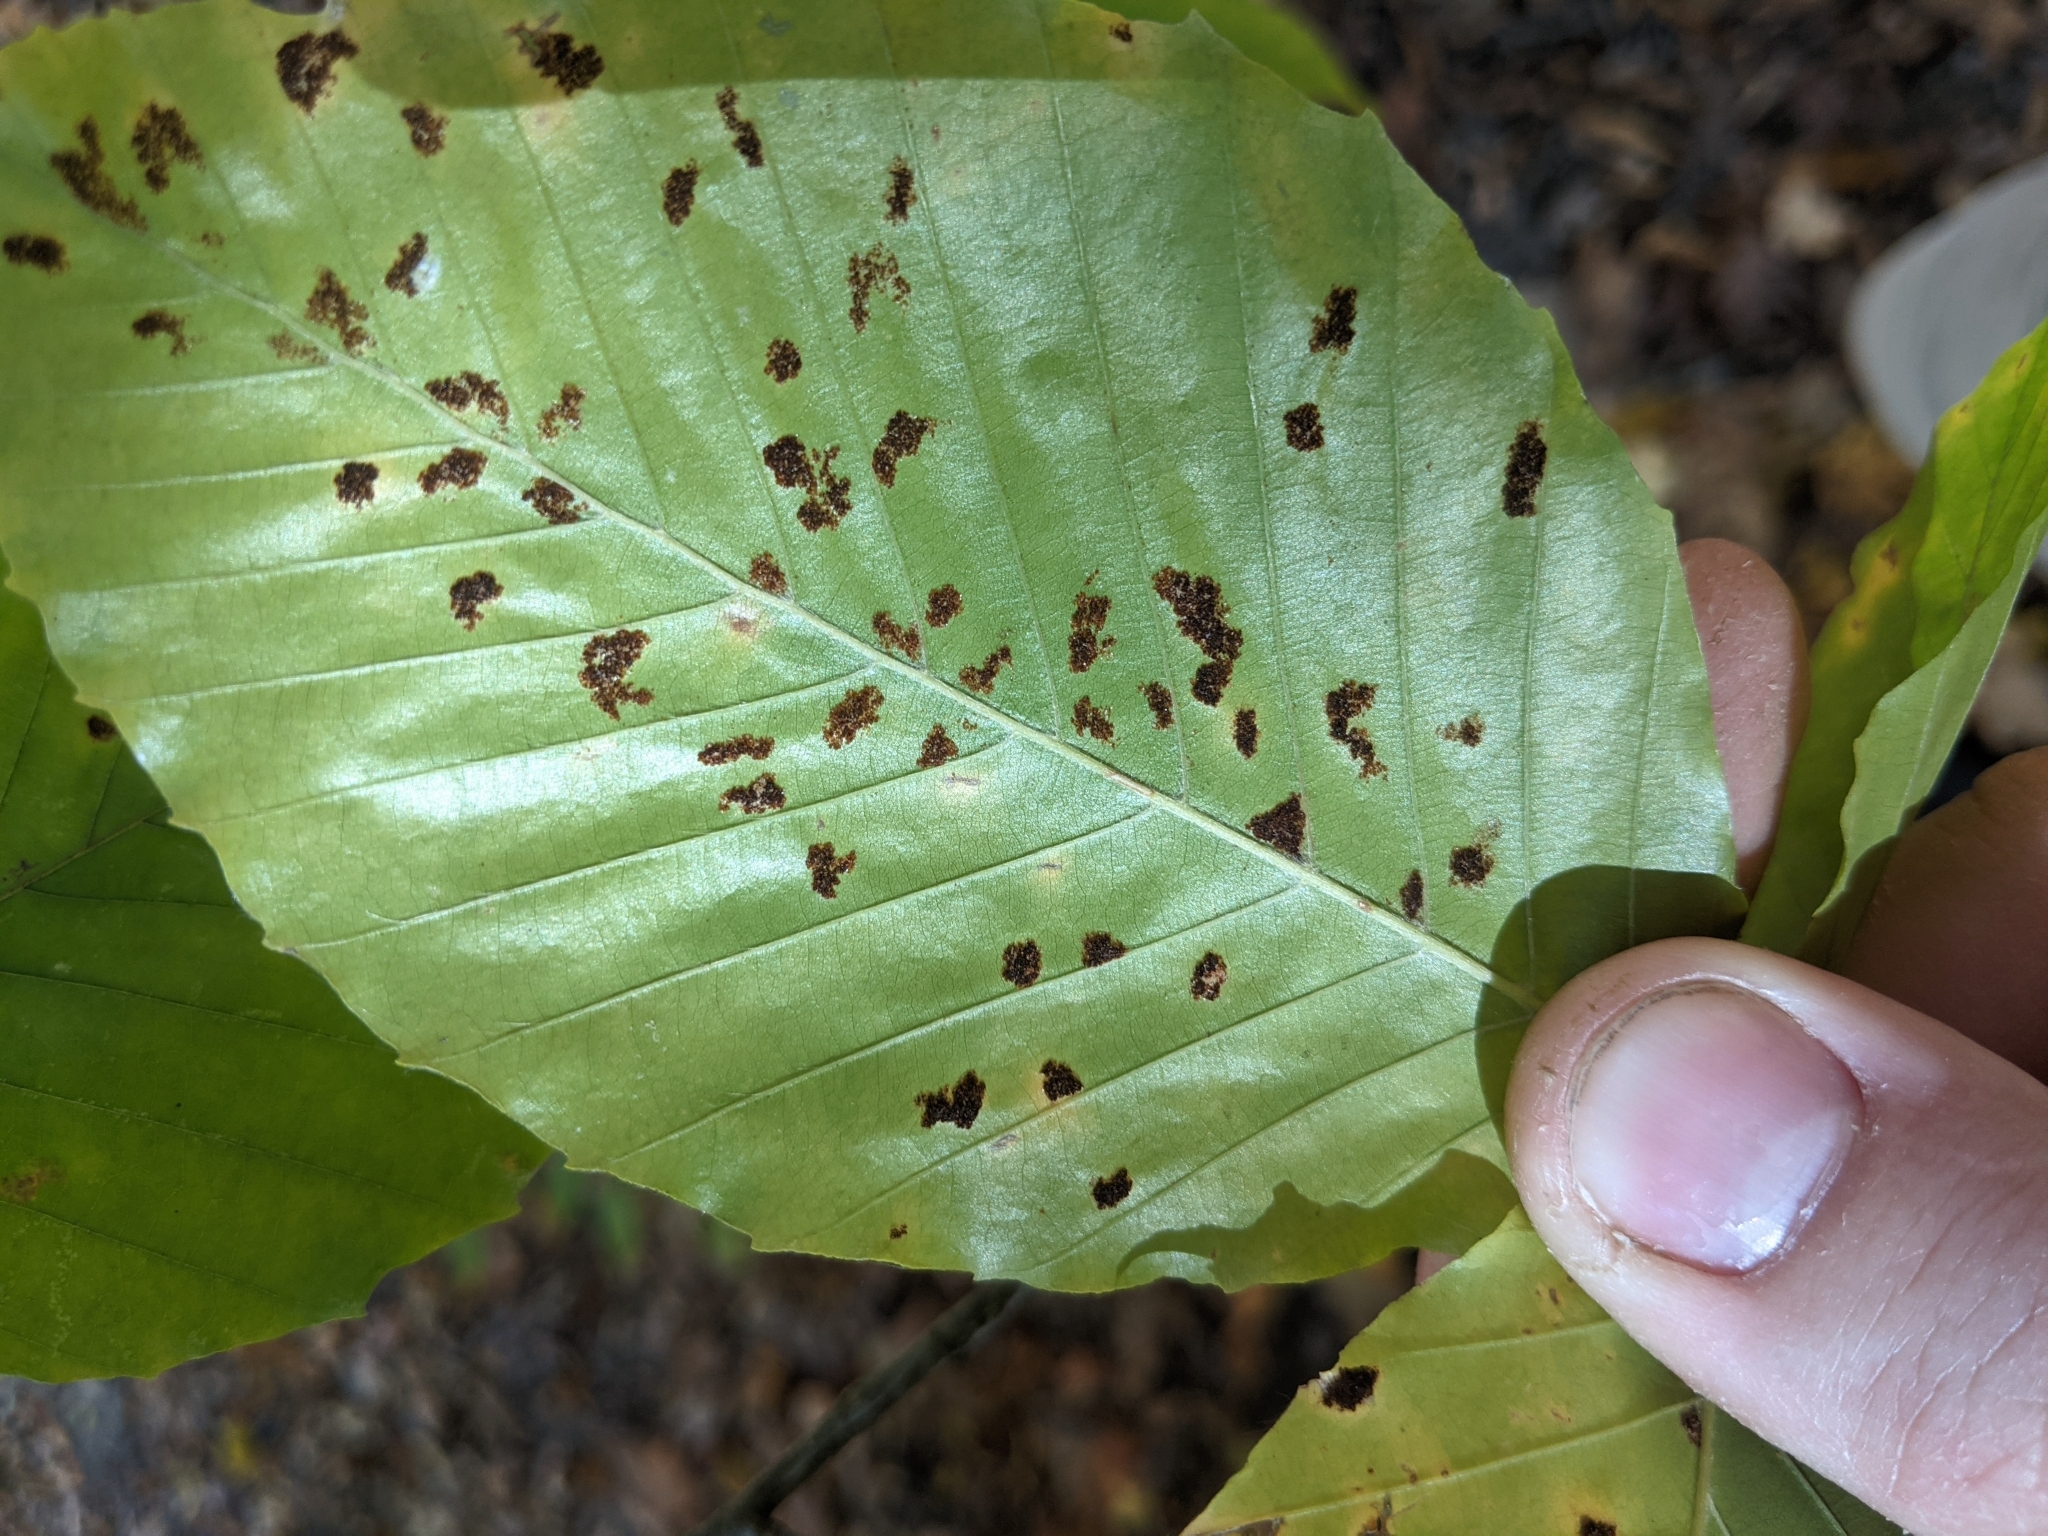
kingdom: Animalia
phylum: Arthropoda
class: Arachnida
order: Trombidiformes
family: Eriophyidae
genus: Acalitus
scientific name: Acalitus
